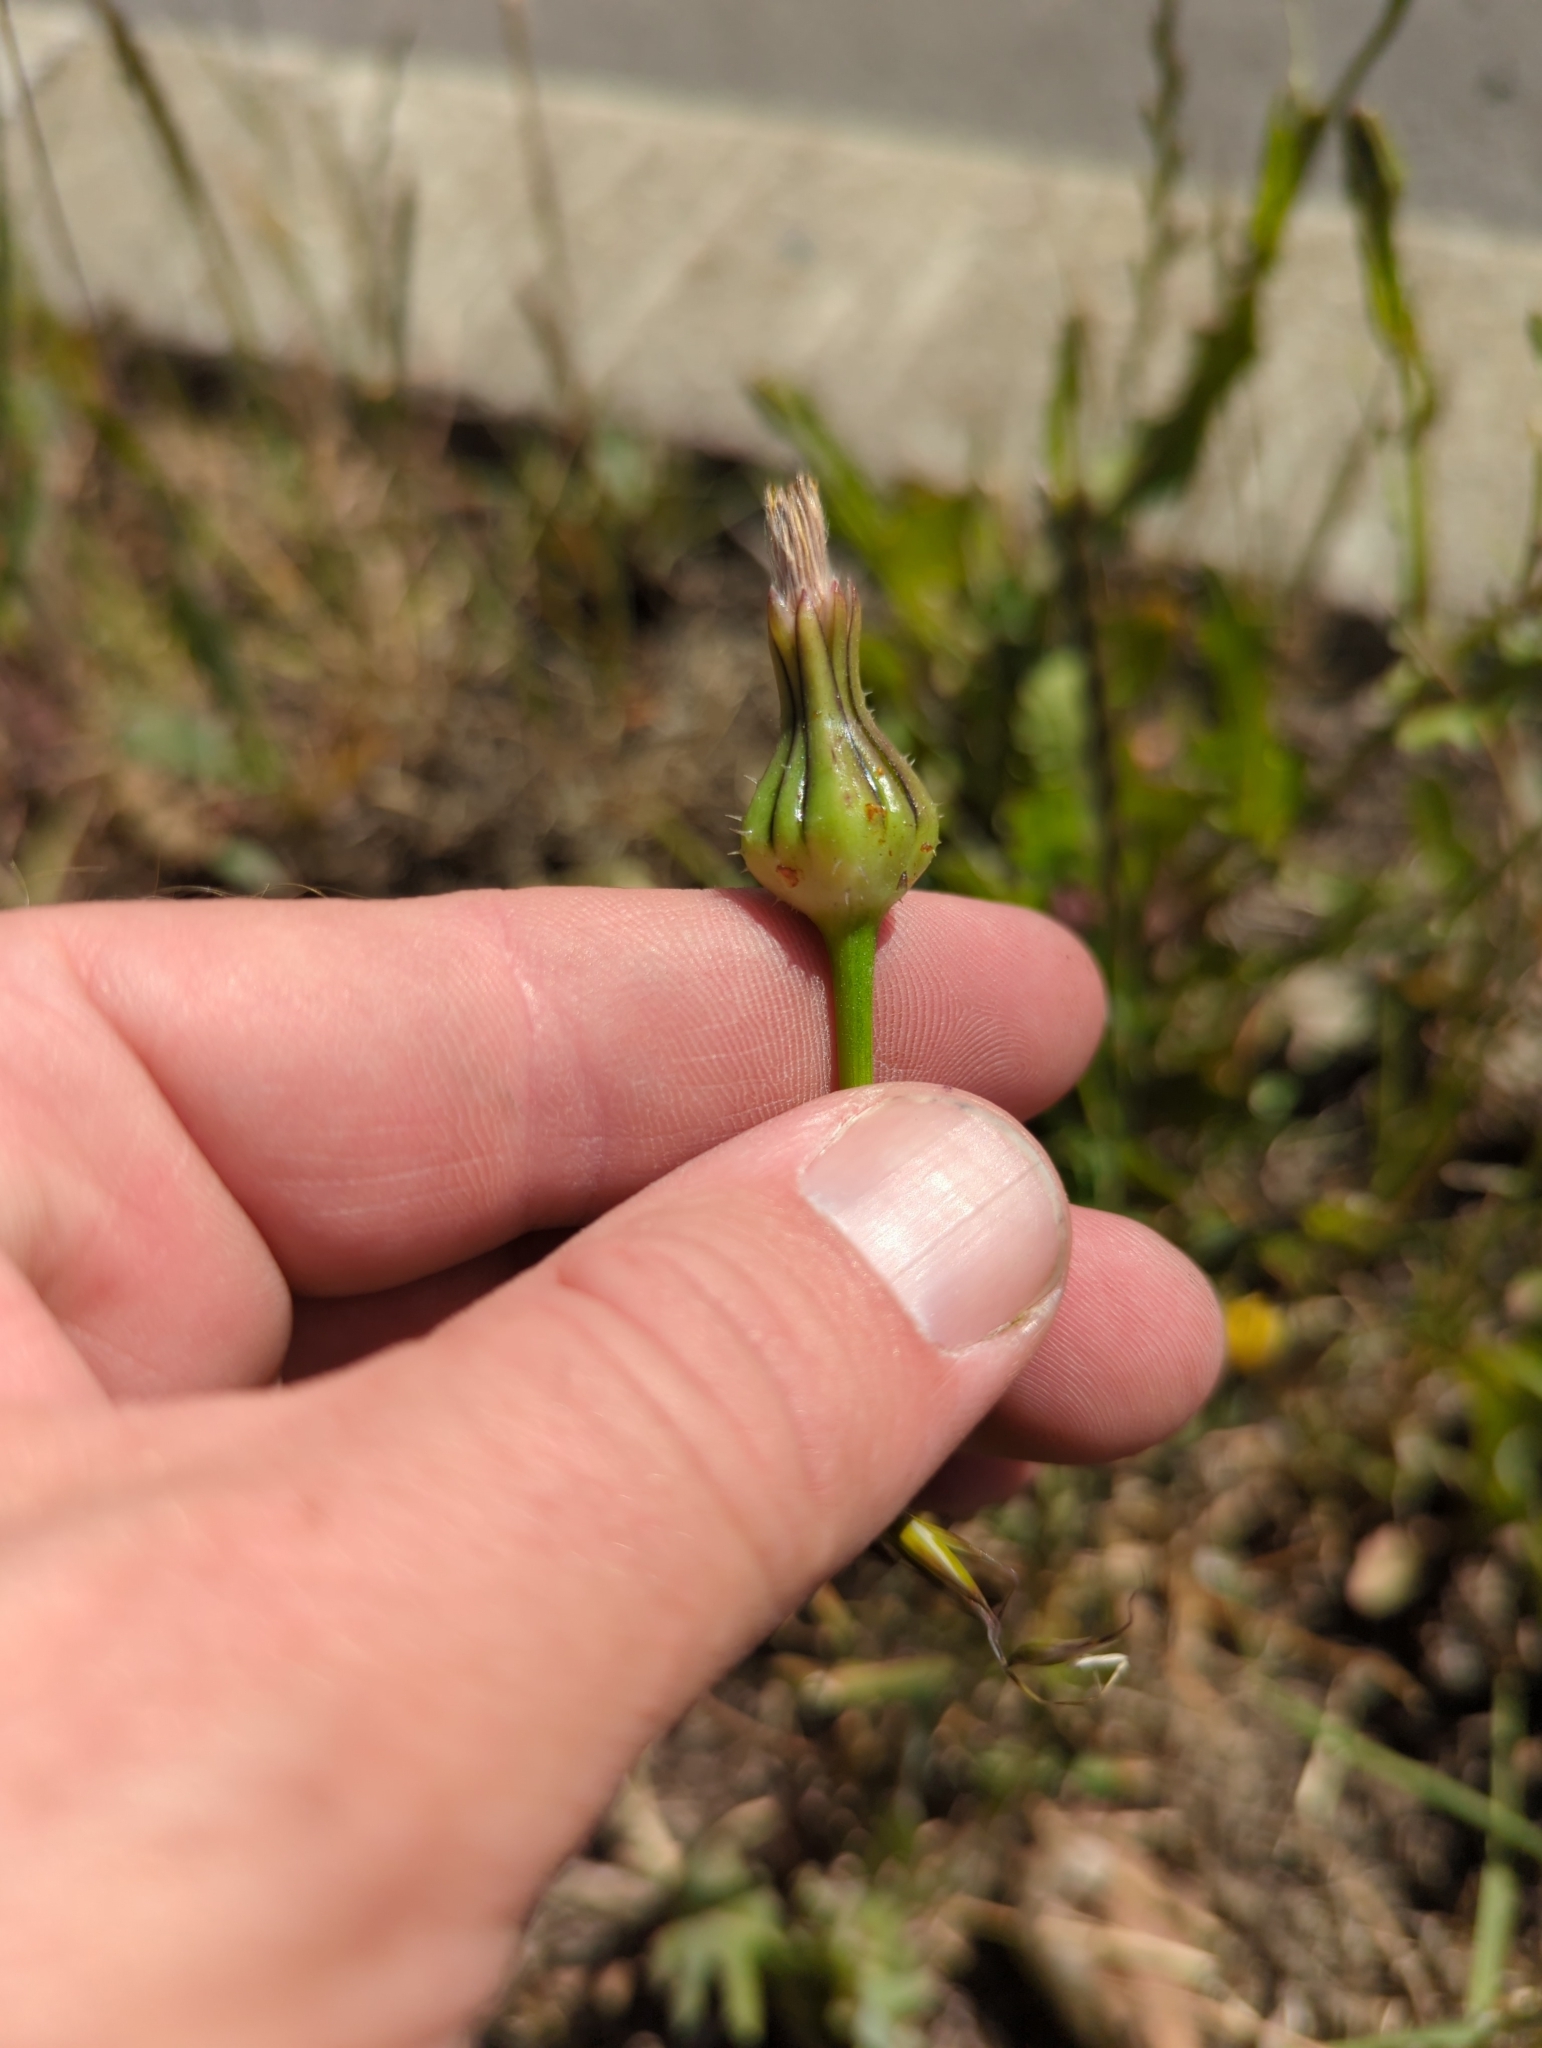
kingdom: Plantae
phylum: Tracheophyta
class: Magnoliopsida
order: Asterales
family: Asteraceae
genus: Urospermum
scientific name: Urospermum picroides
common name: False hawkbit
